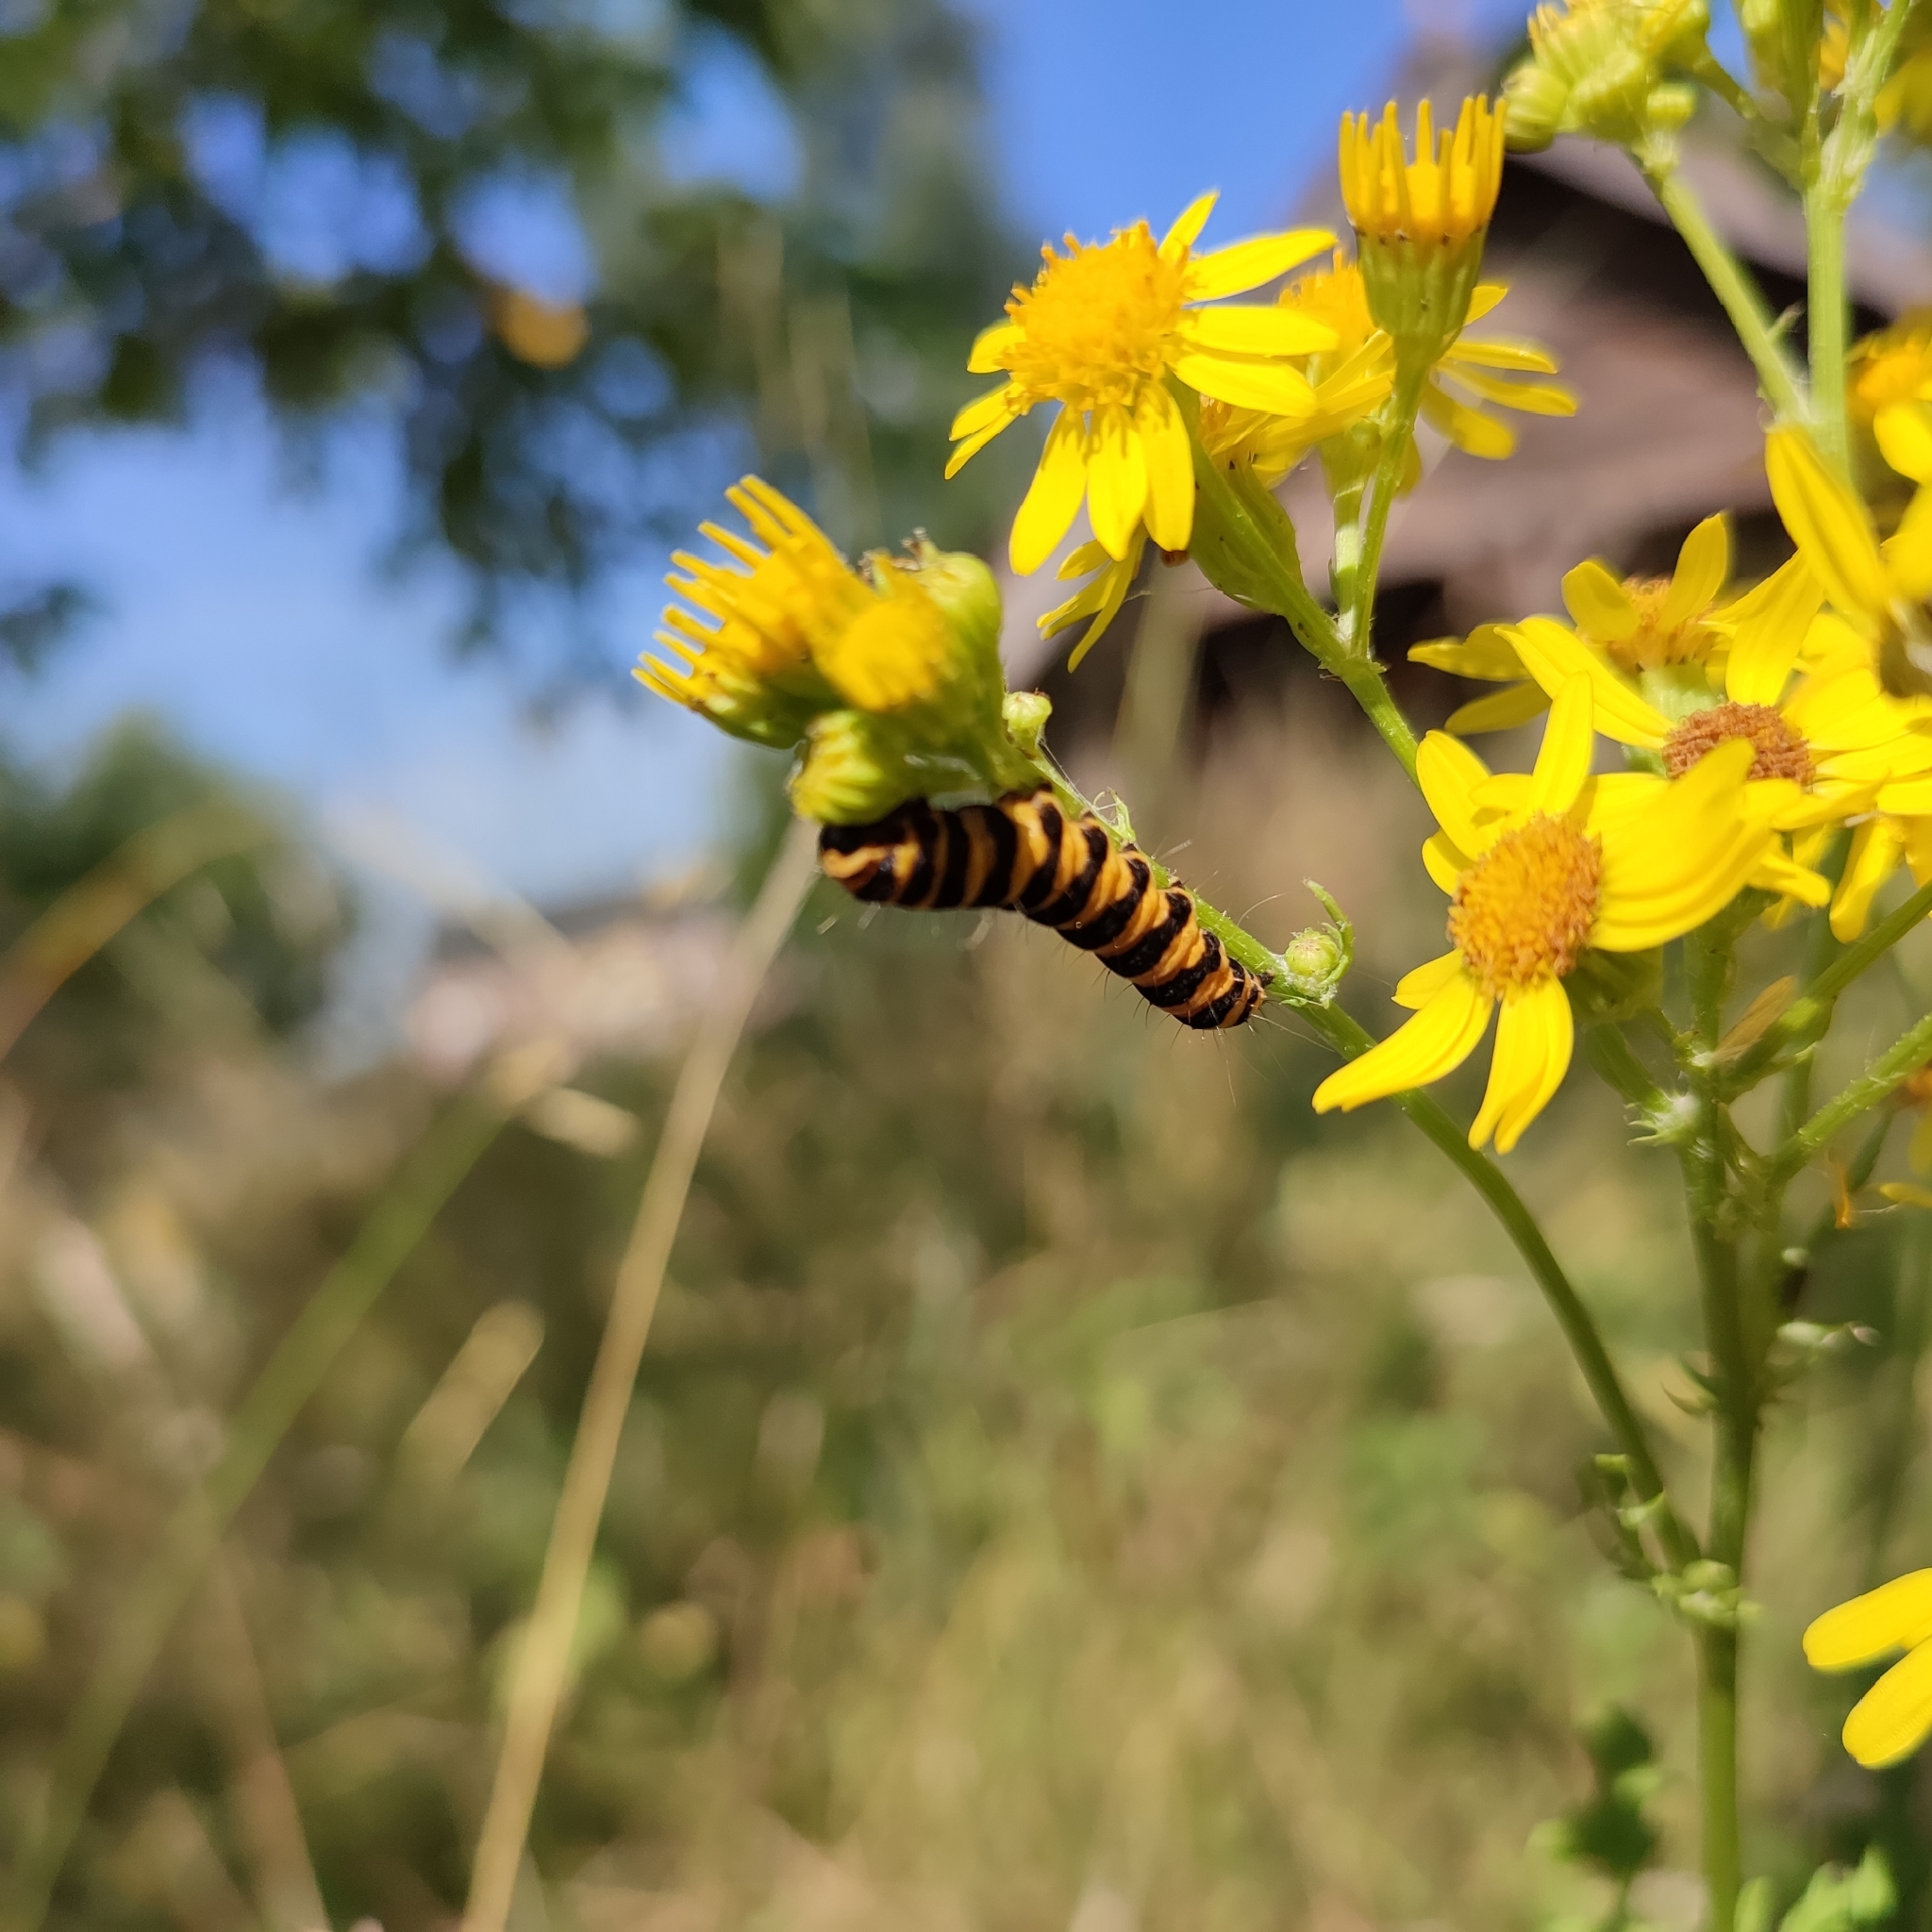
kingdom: Animalia
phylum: Arthropoda
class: Insecta
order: Lepidoptera
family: Erebidae
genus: Tyria
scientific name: Tyria jacobaeae
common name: Cinnabar
